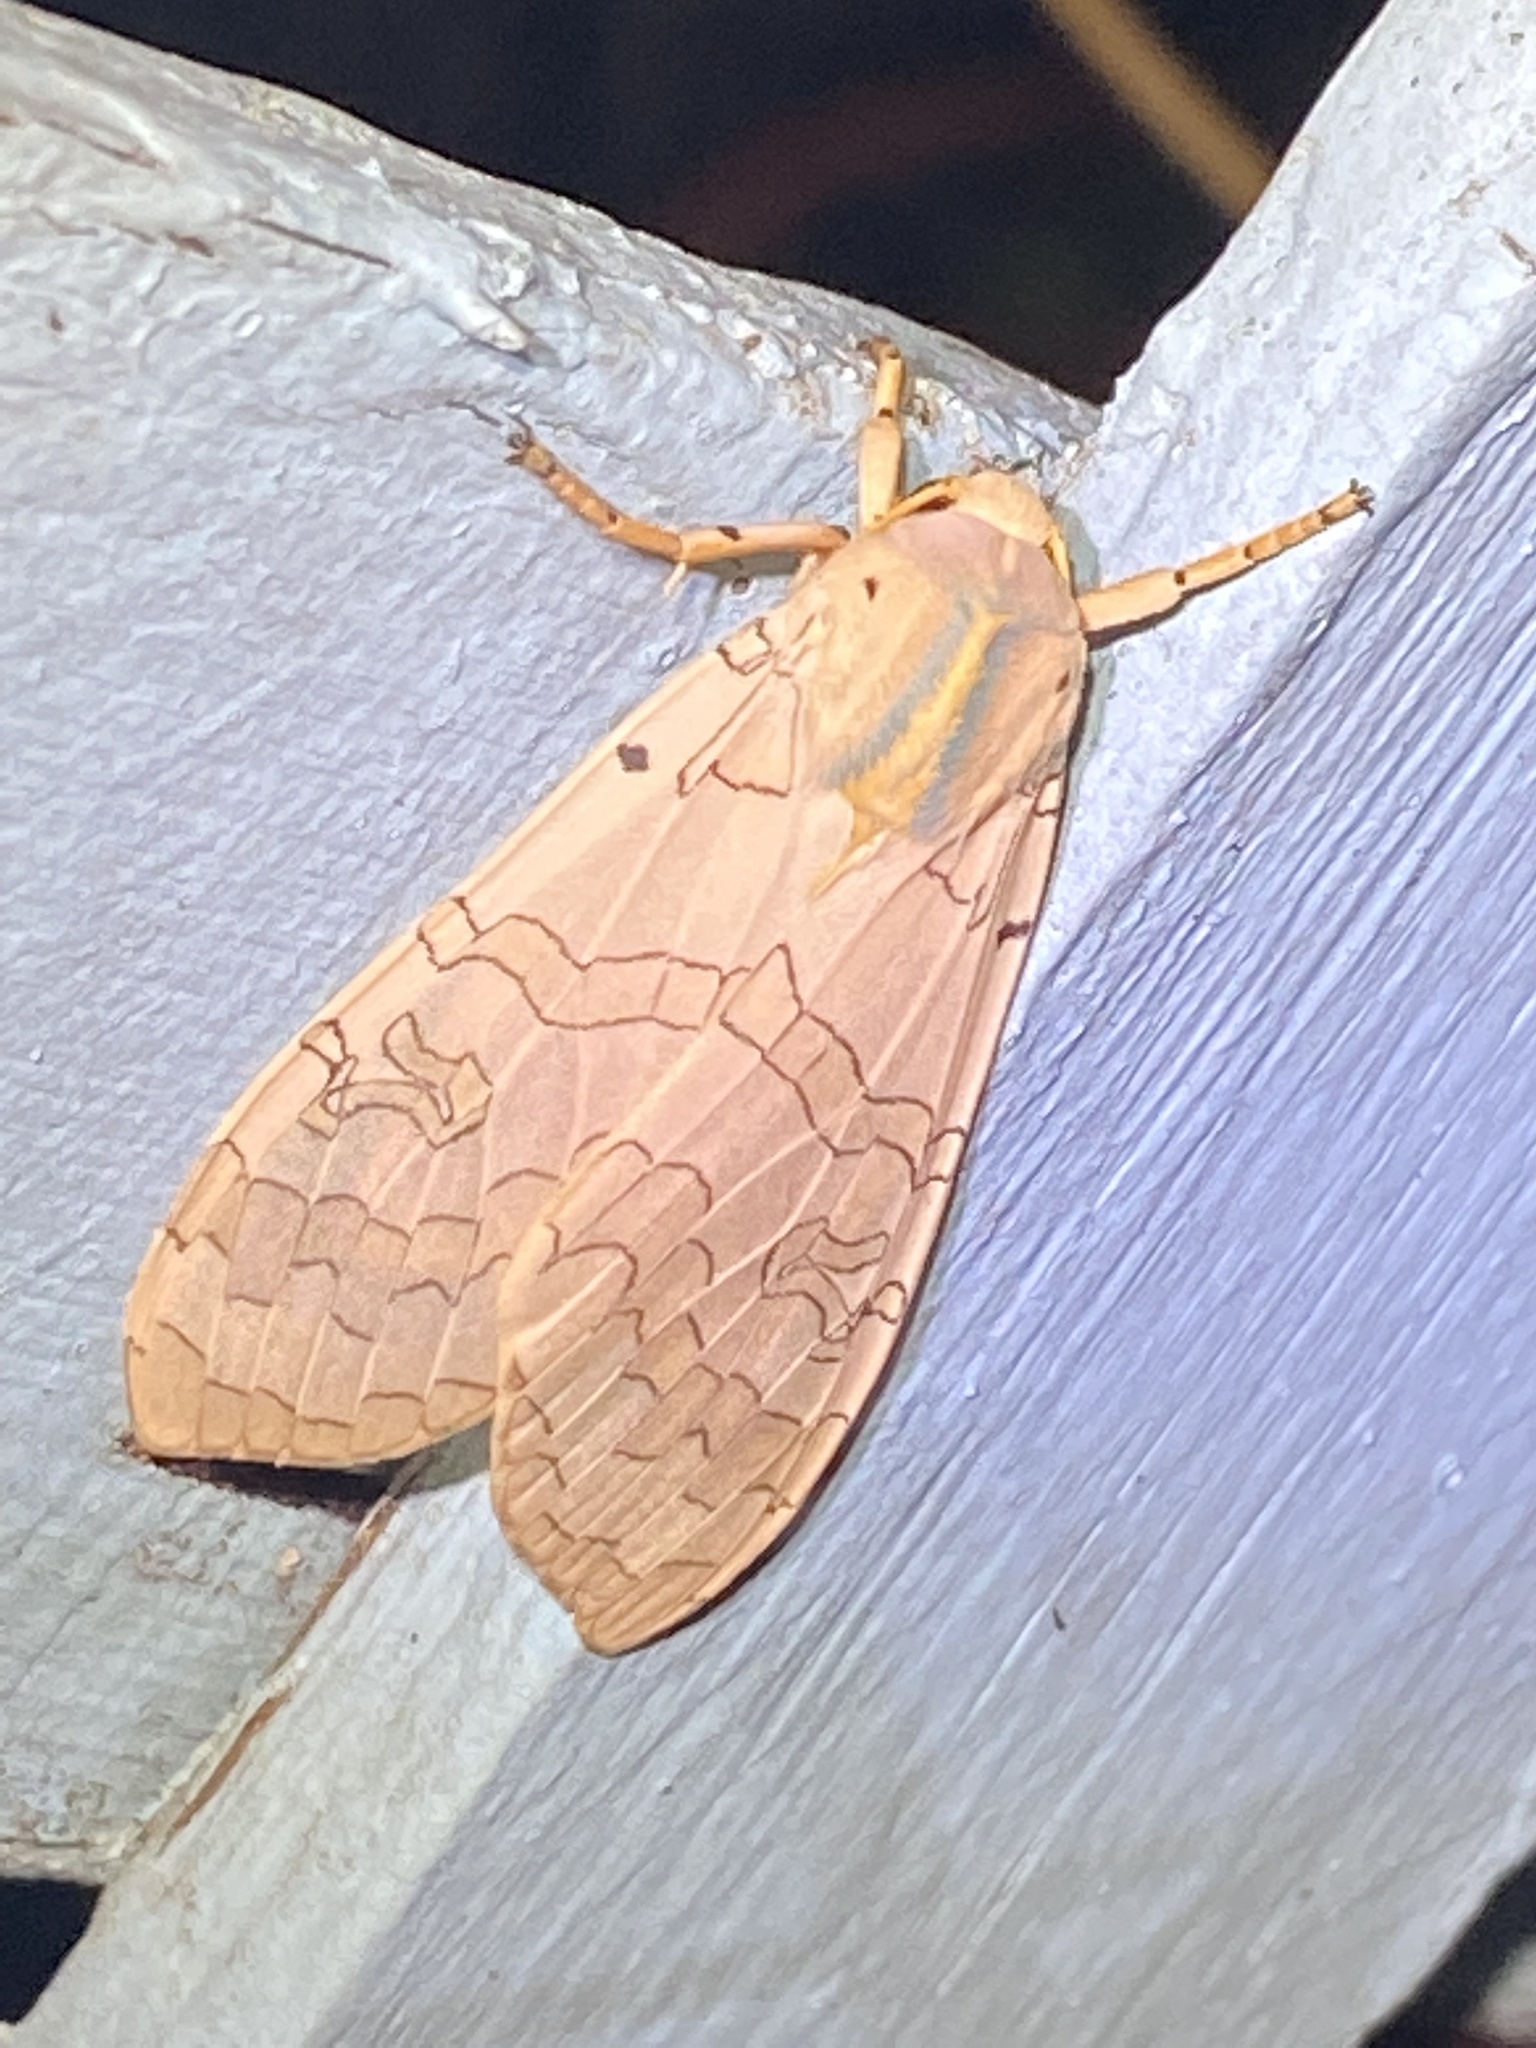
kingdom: Animalia
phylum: Arthropoda
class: Insecta
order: Lepidoptera
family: Erebidae
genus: Halysidota
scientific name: Halysidota
